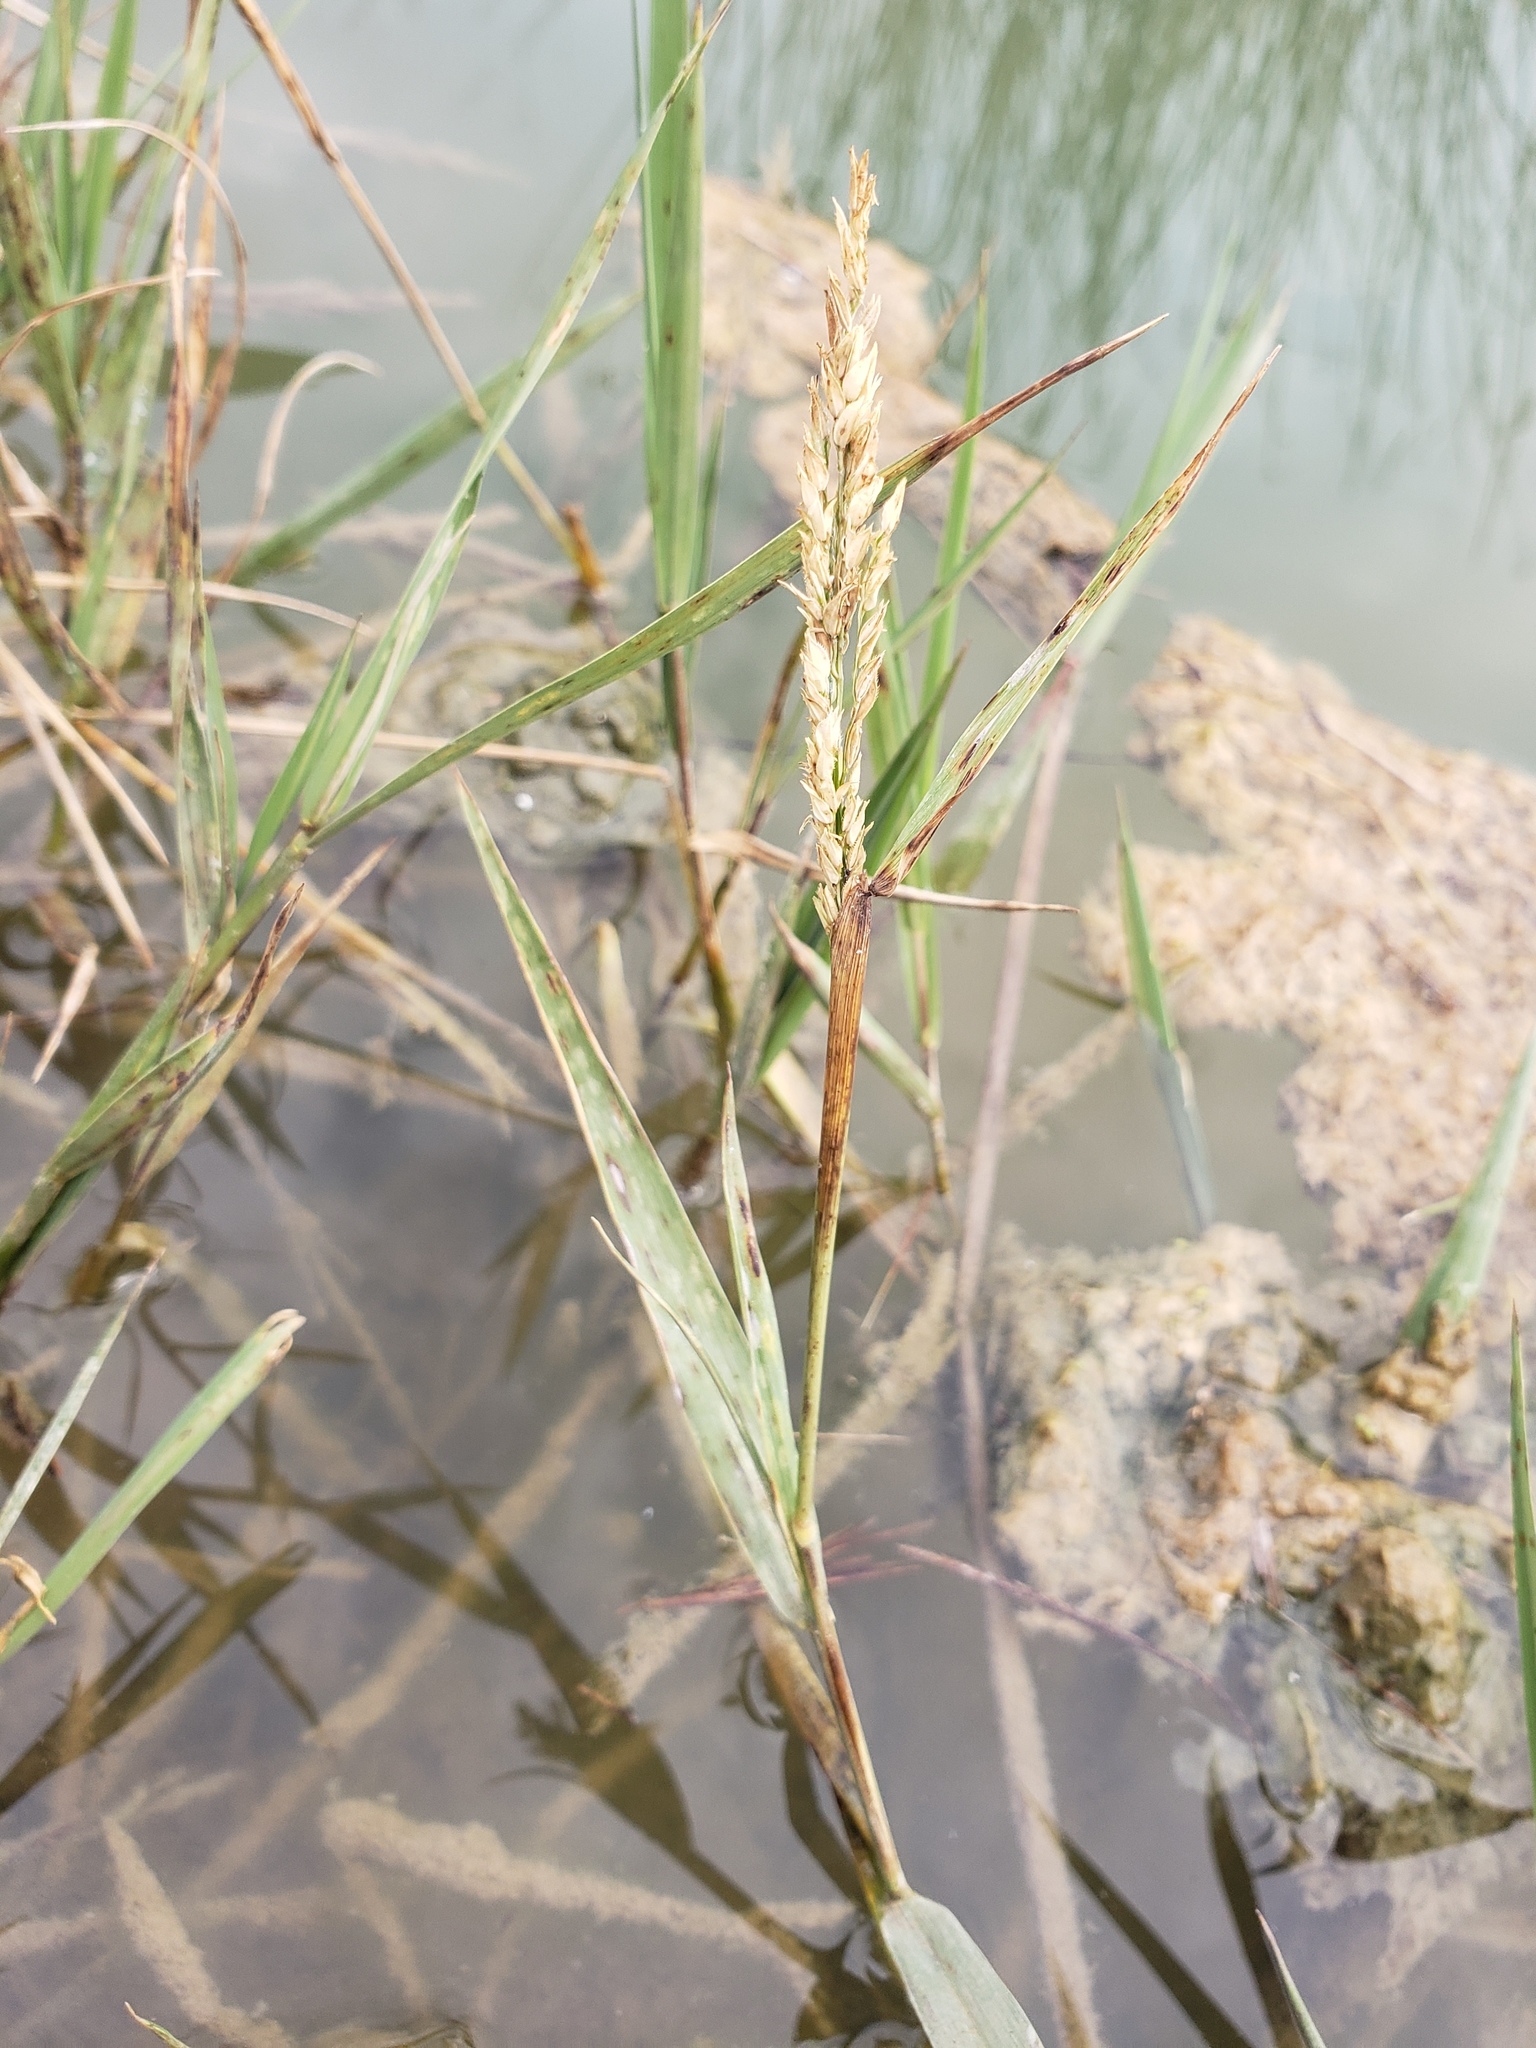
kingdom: Plantae
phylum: Tracheophyta
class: Liliopsida
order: Poales
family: Poaceae
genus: Leersia
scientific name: Leersia hexandra
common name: Southern cut grass
